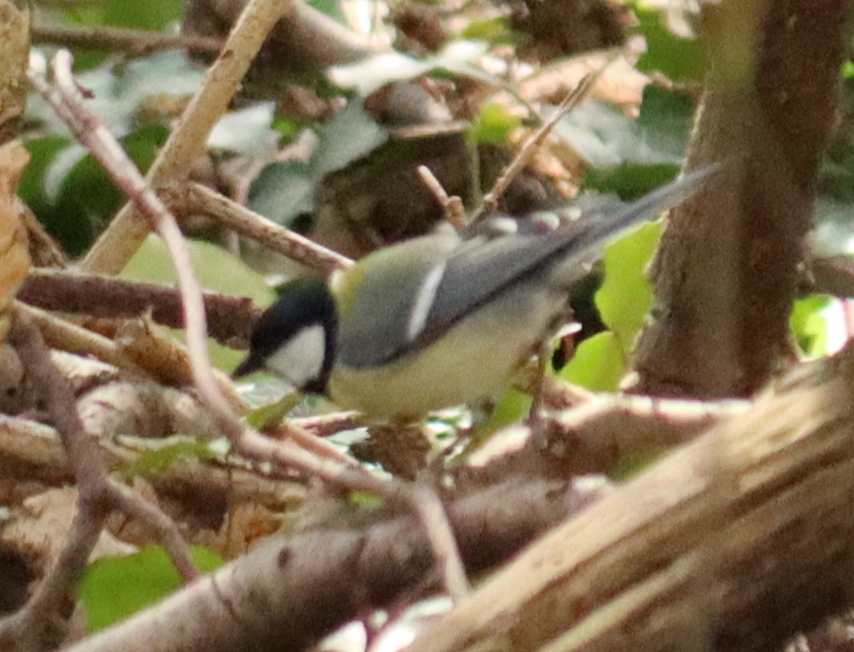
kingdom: Animalia
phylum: Chordata
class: Aves
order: Passeriformes
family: Paridae
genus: Parus
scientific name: Parus major
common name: Great tit
